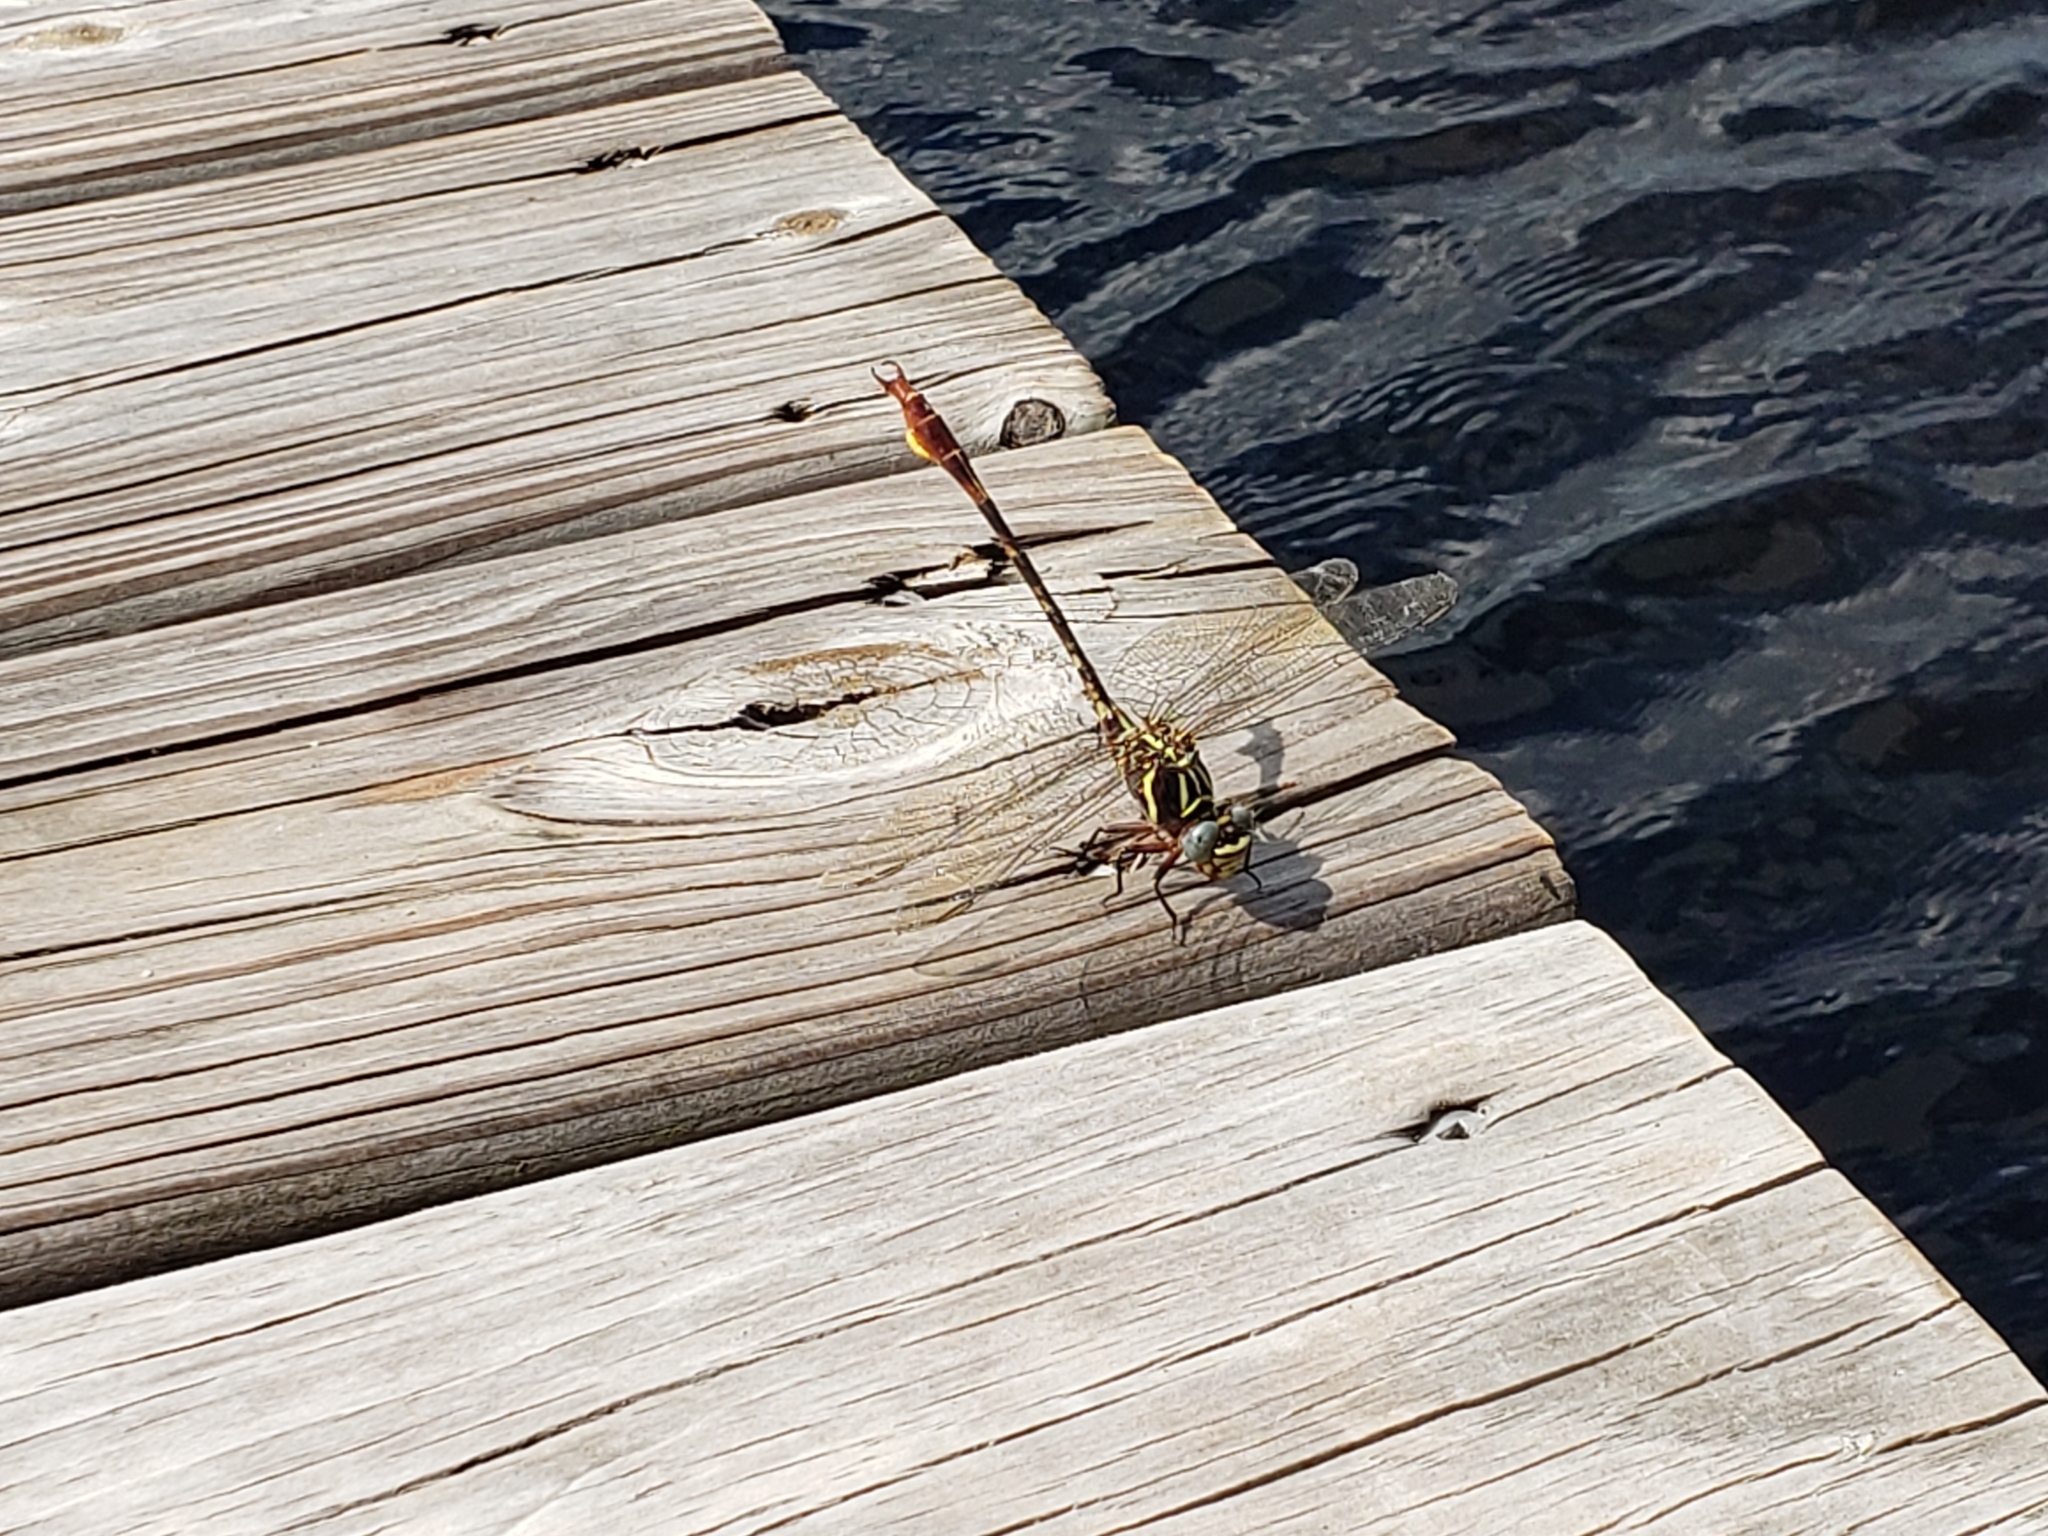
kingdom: Animalia
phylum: Arthropoda
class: Insecta
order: Odonata
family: Gomphidae
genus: Aphylla
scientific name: Aphylla williamsoni
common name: Two-striped forceptail
